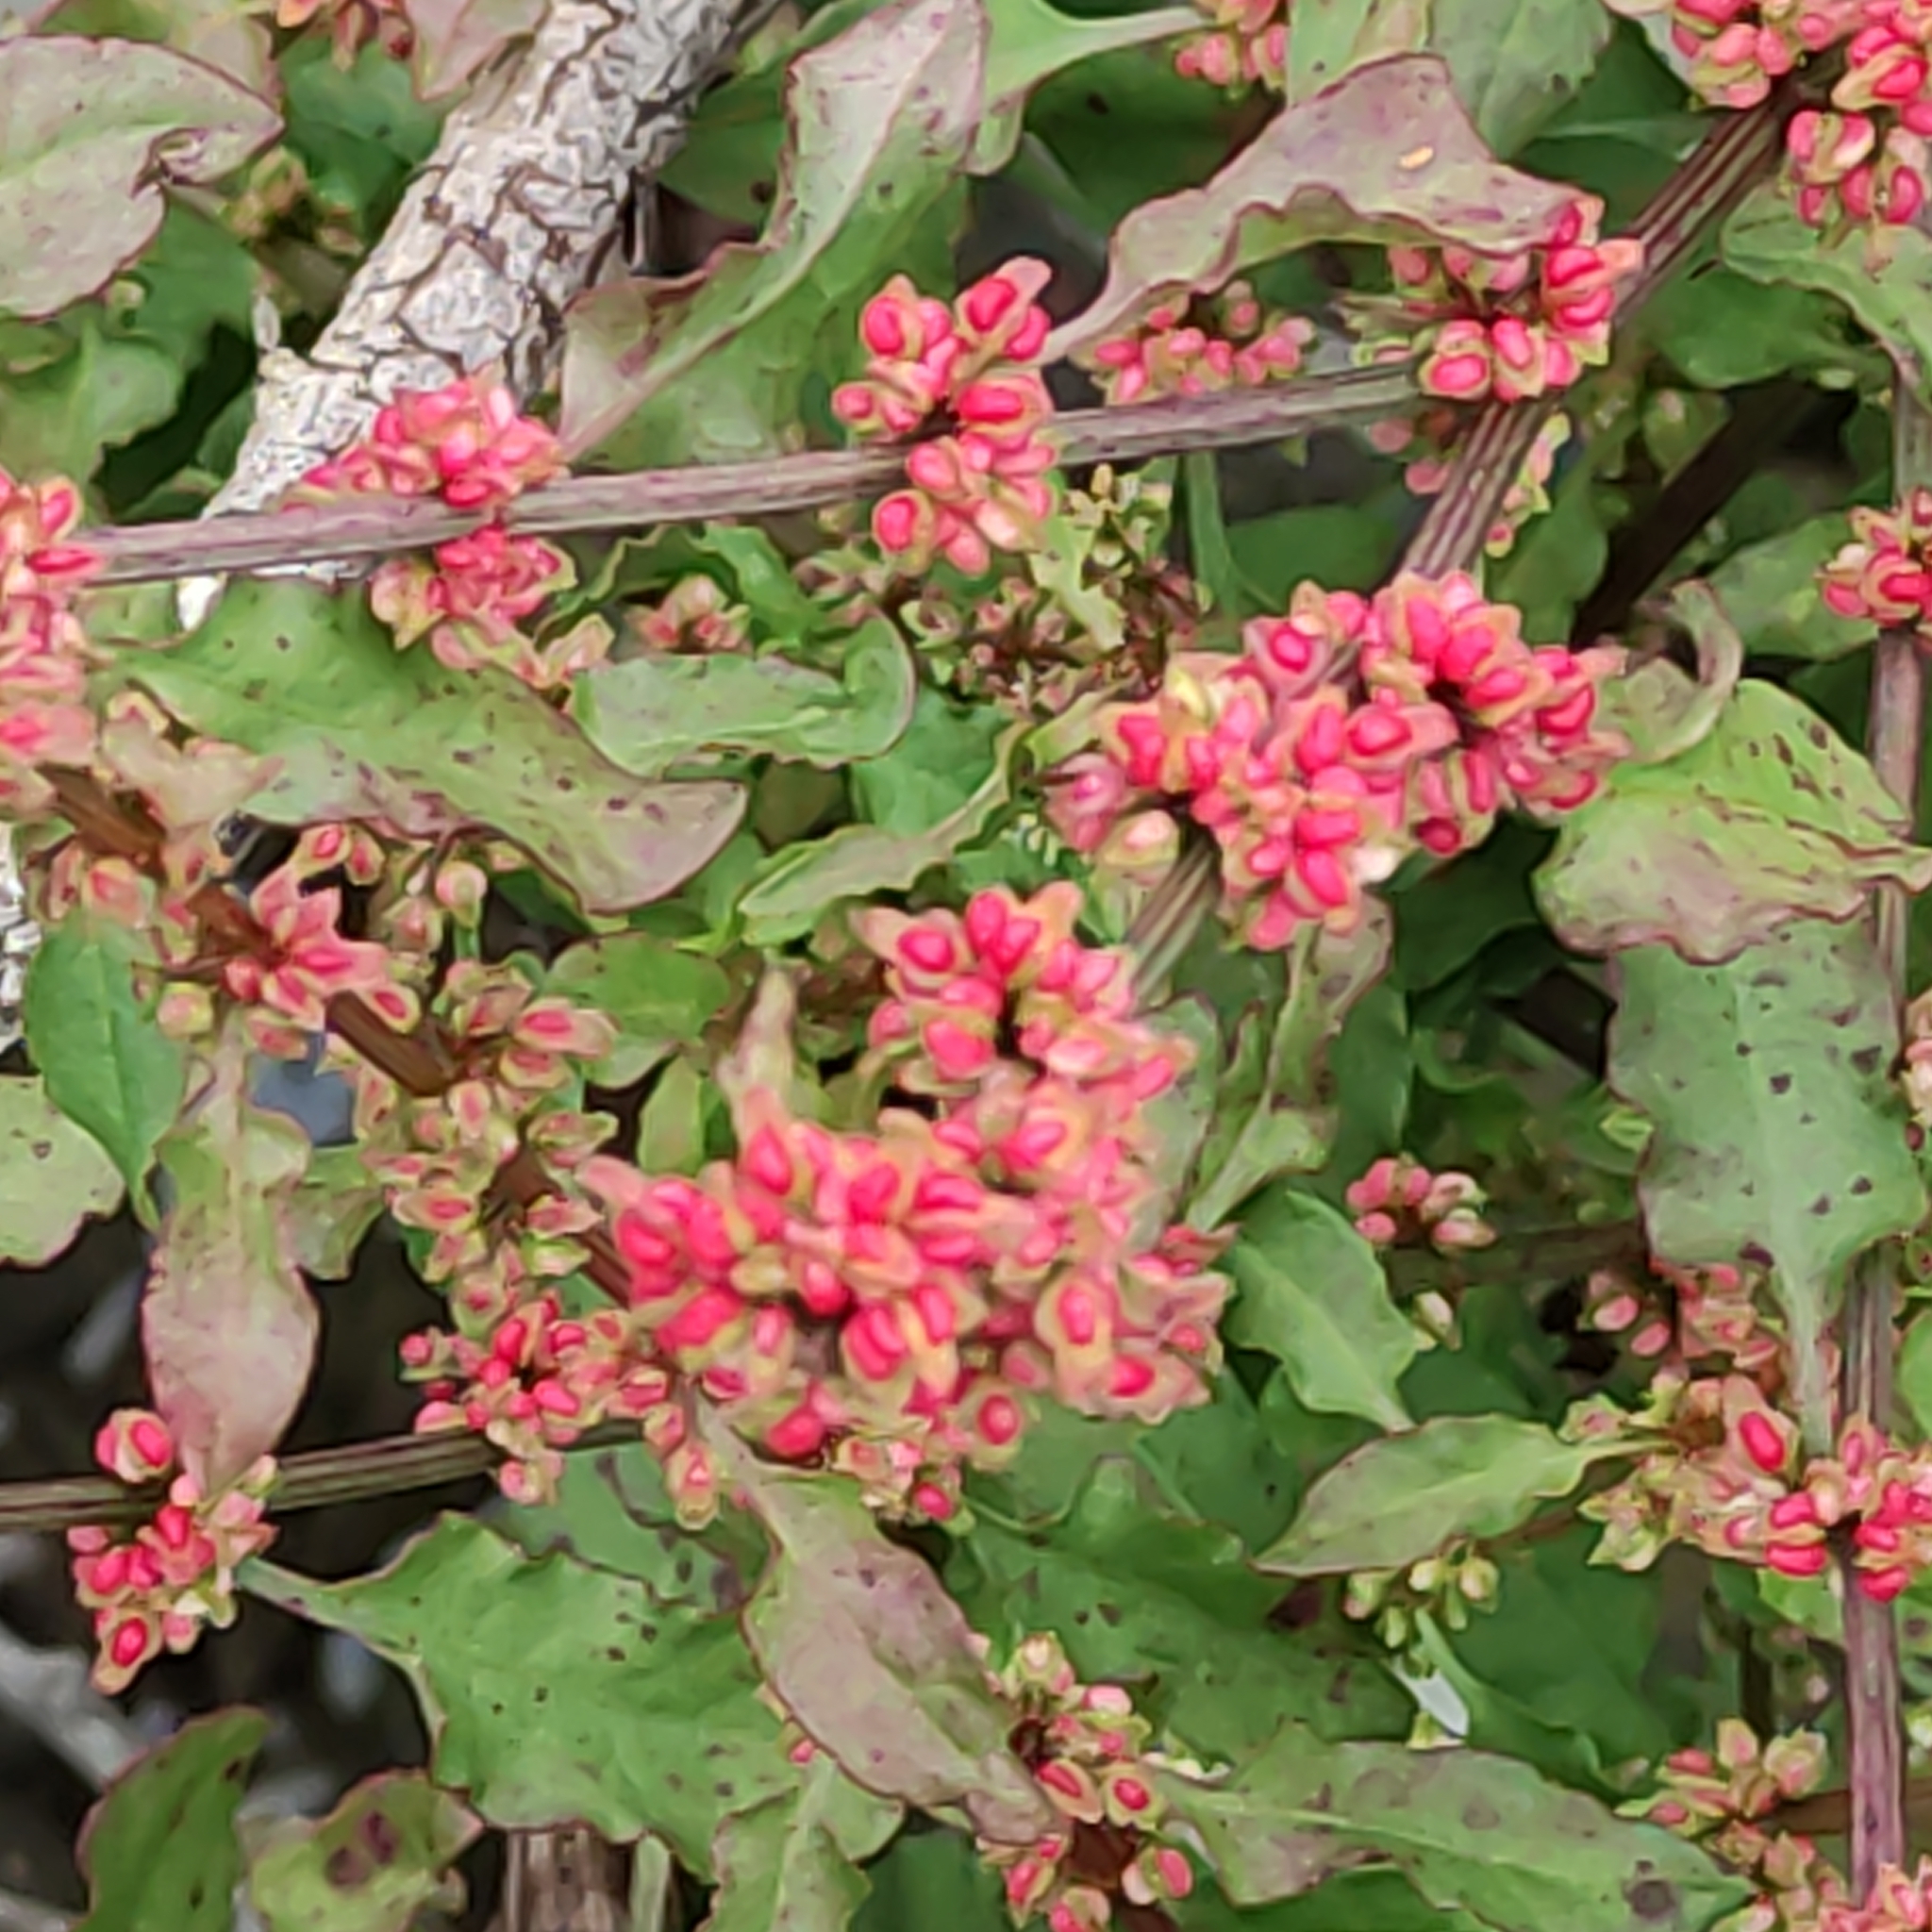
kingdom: Plantae
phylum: Tracheophyta
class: Magnoliopsida
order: Caryophyllales
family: Polygonaceae
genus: Rumex
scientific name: Rumex acetosella
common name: Common sheep sorrel
